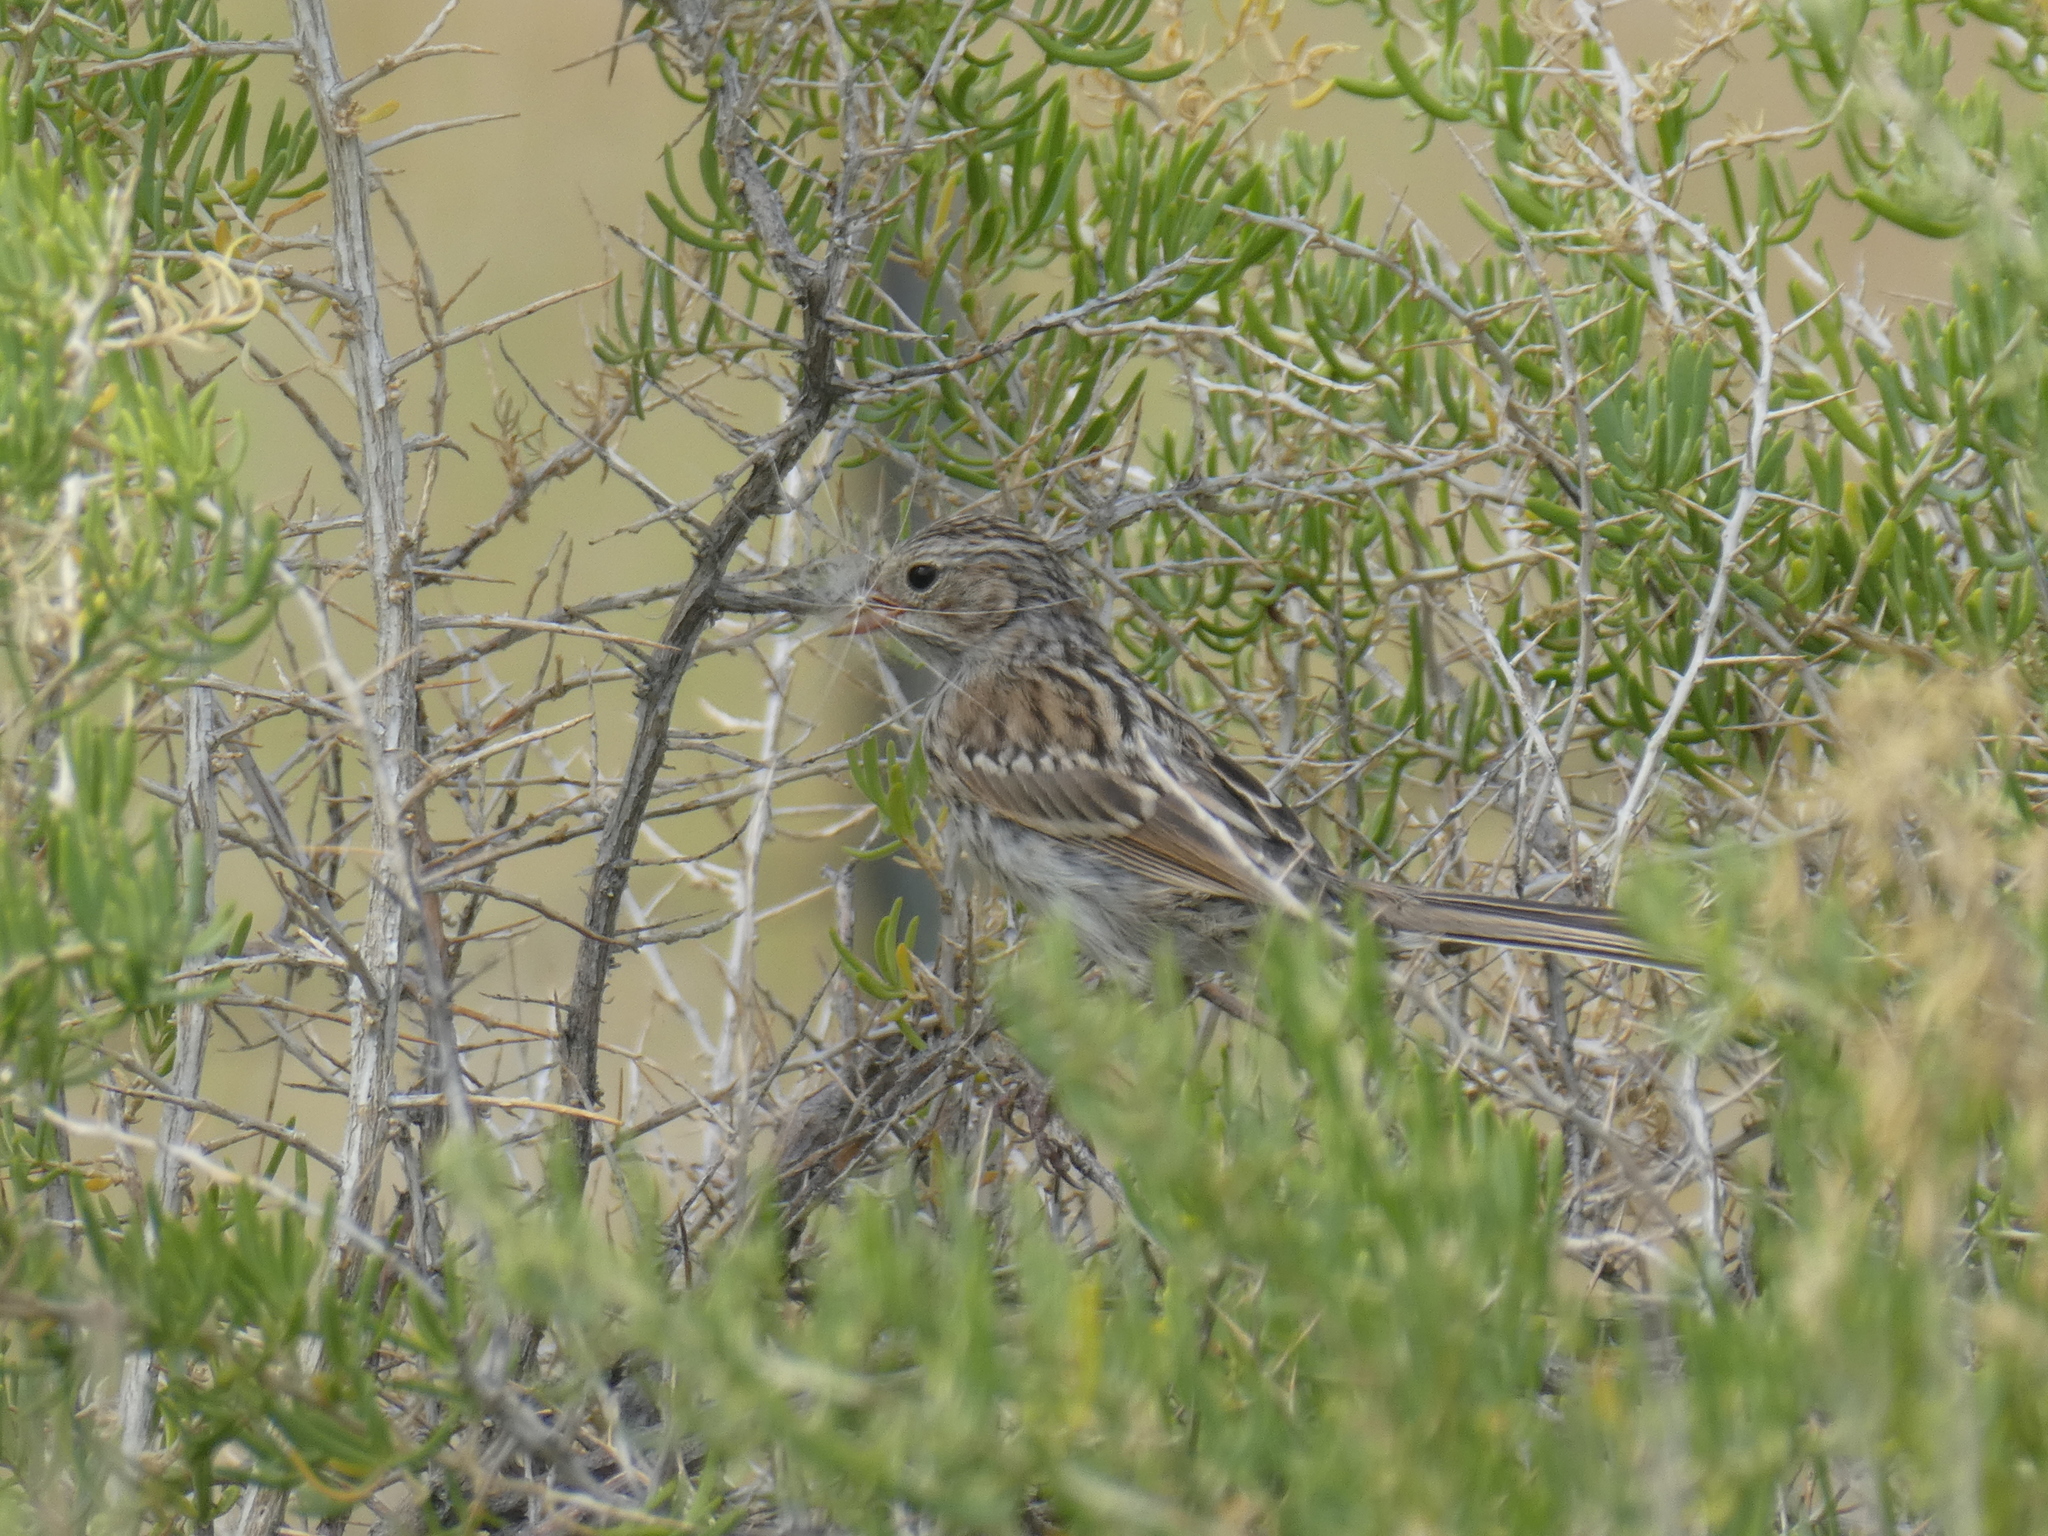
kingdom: Animalia
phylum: Chordata
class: Aves
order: Passeriformes
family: Passerellidae
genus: Pooecetes
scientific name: Pooecetes gramineus
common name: Vesper sparrow
